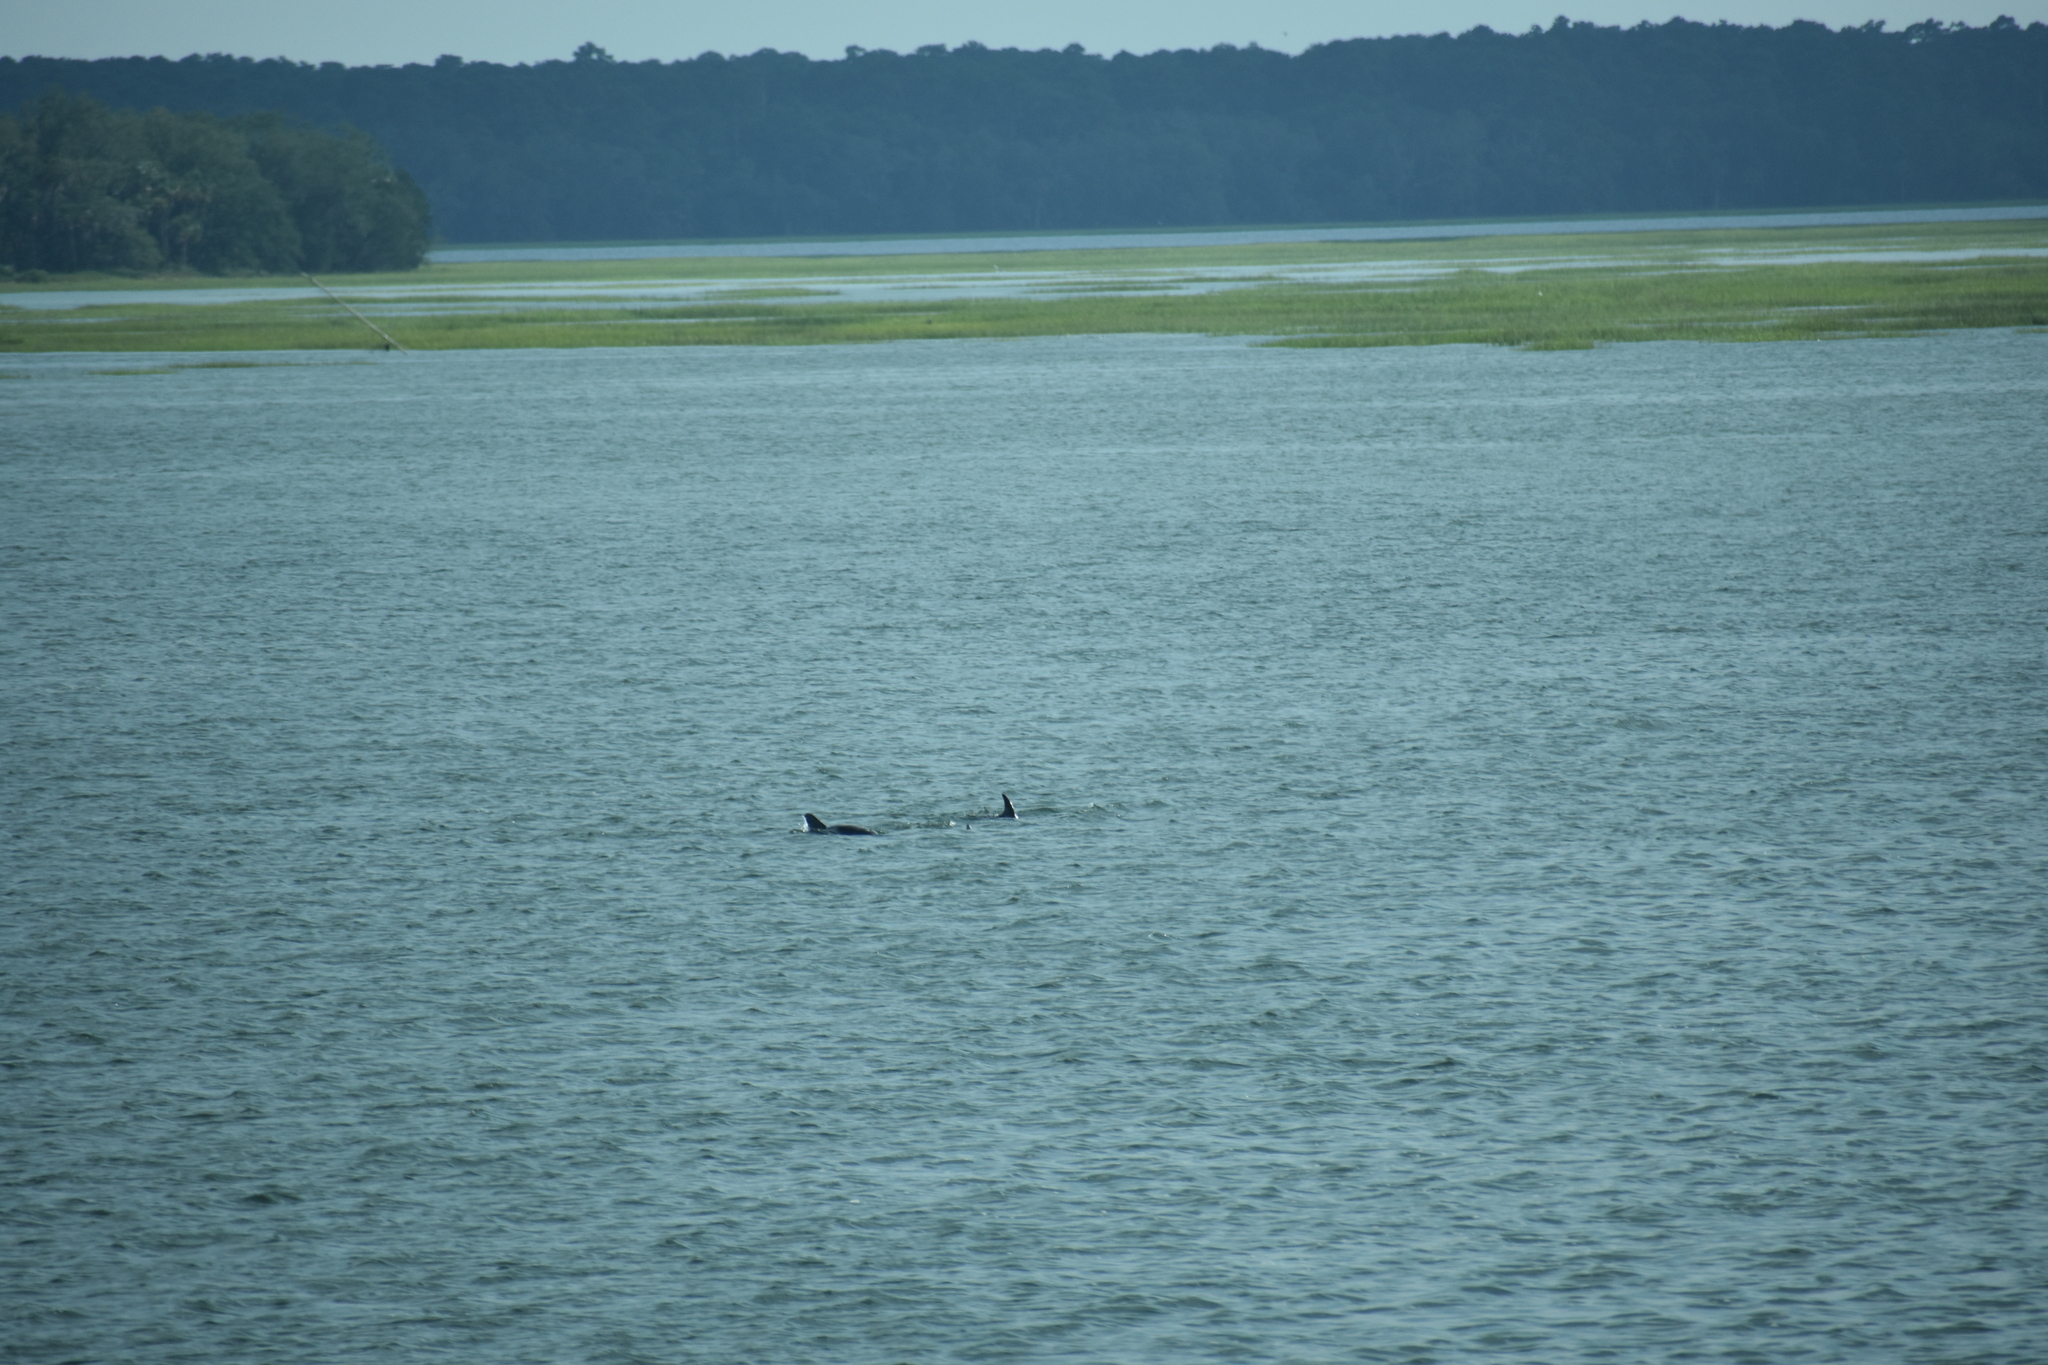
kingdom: Animalia
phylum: Chordata
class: Mammalia
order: Cetacea
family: Delphinidae
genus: Tursiops
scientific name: Tursiops truncatus
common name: Bottlenose dolphin
